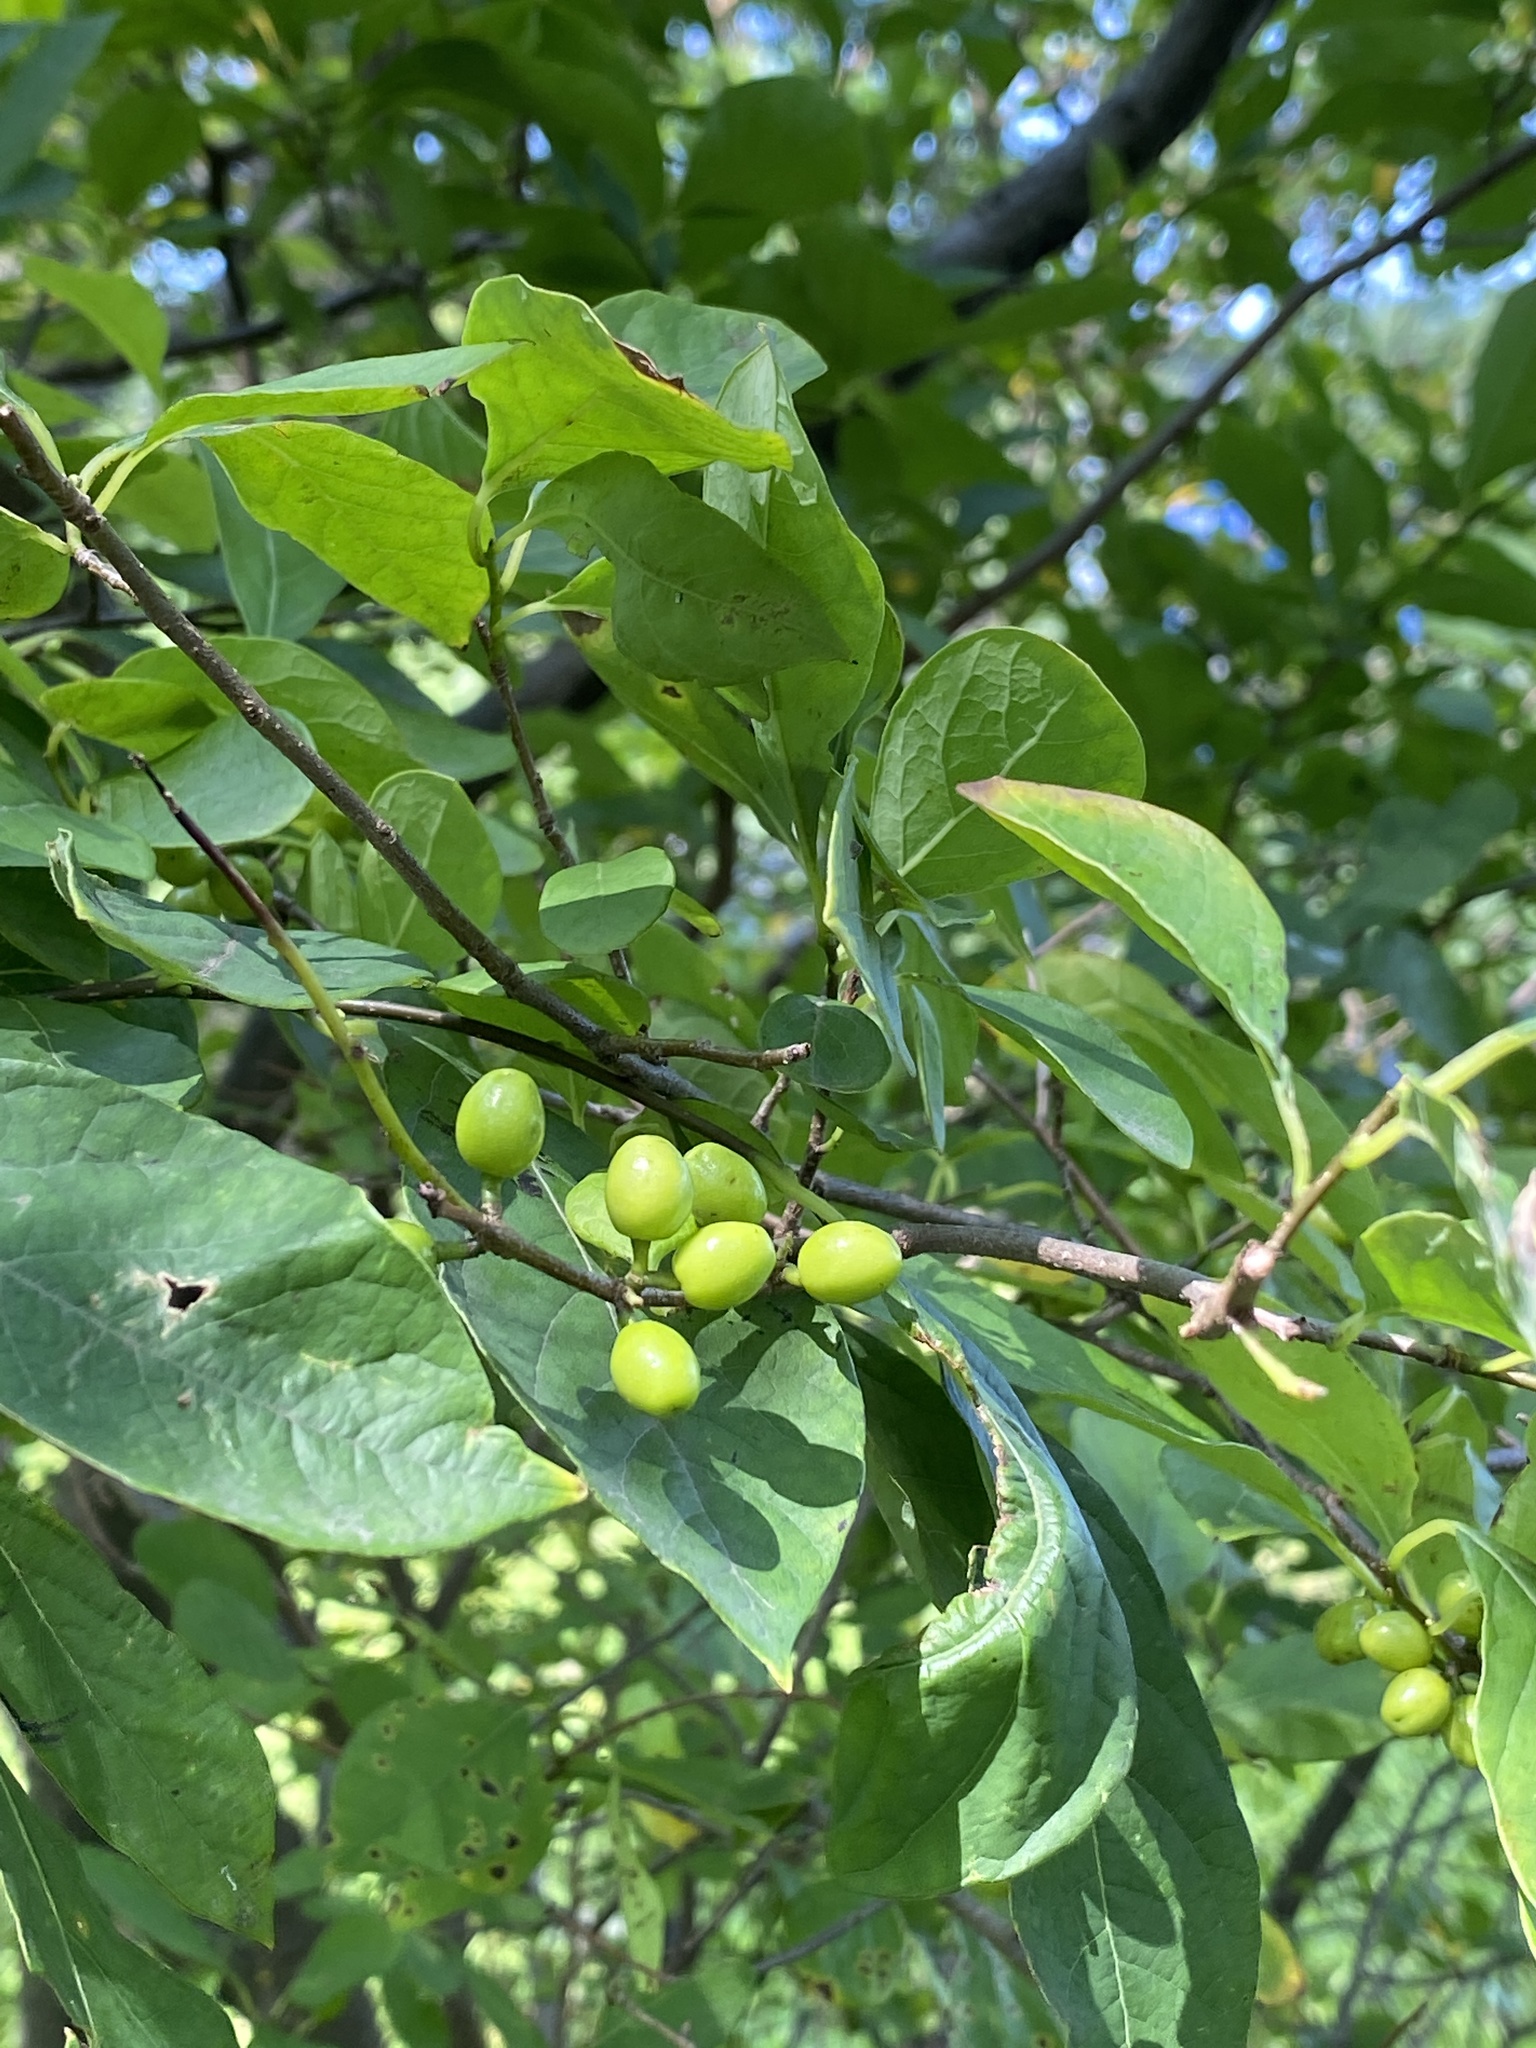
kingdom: Plantae
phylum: Tracheophyta
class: Magnoliopsida
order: Laurales
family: Lauraceae
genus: Lindera
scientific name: Lindera benzoin
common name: Spicebush
